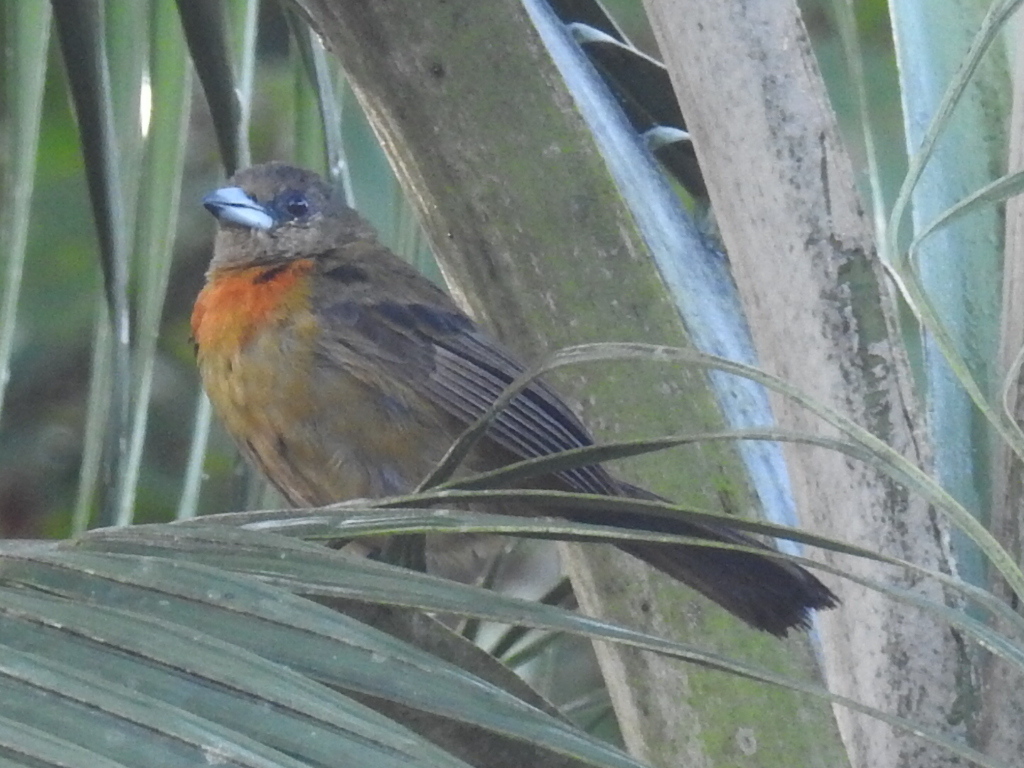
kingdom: Animalia
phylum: Chordata
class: Aves
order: Passeriformes
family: Thraupidae
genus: Ramphocelus
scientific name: Ramphocelus passerinii
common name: Passerini's tanager
